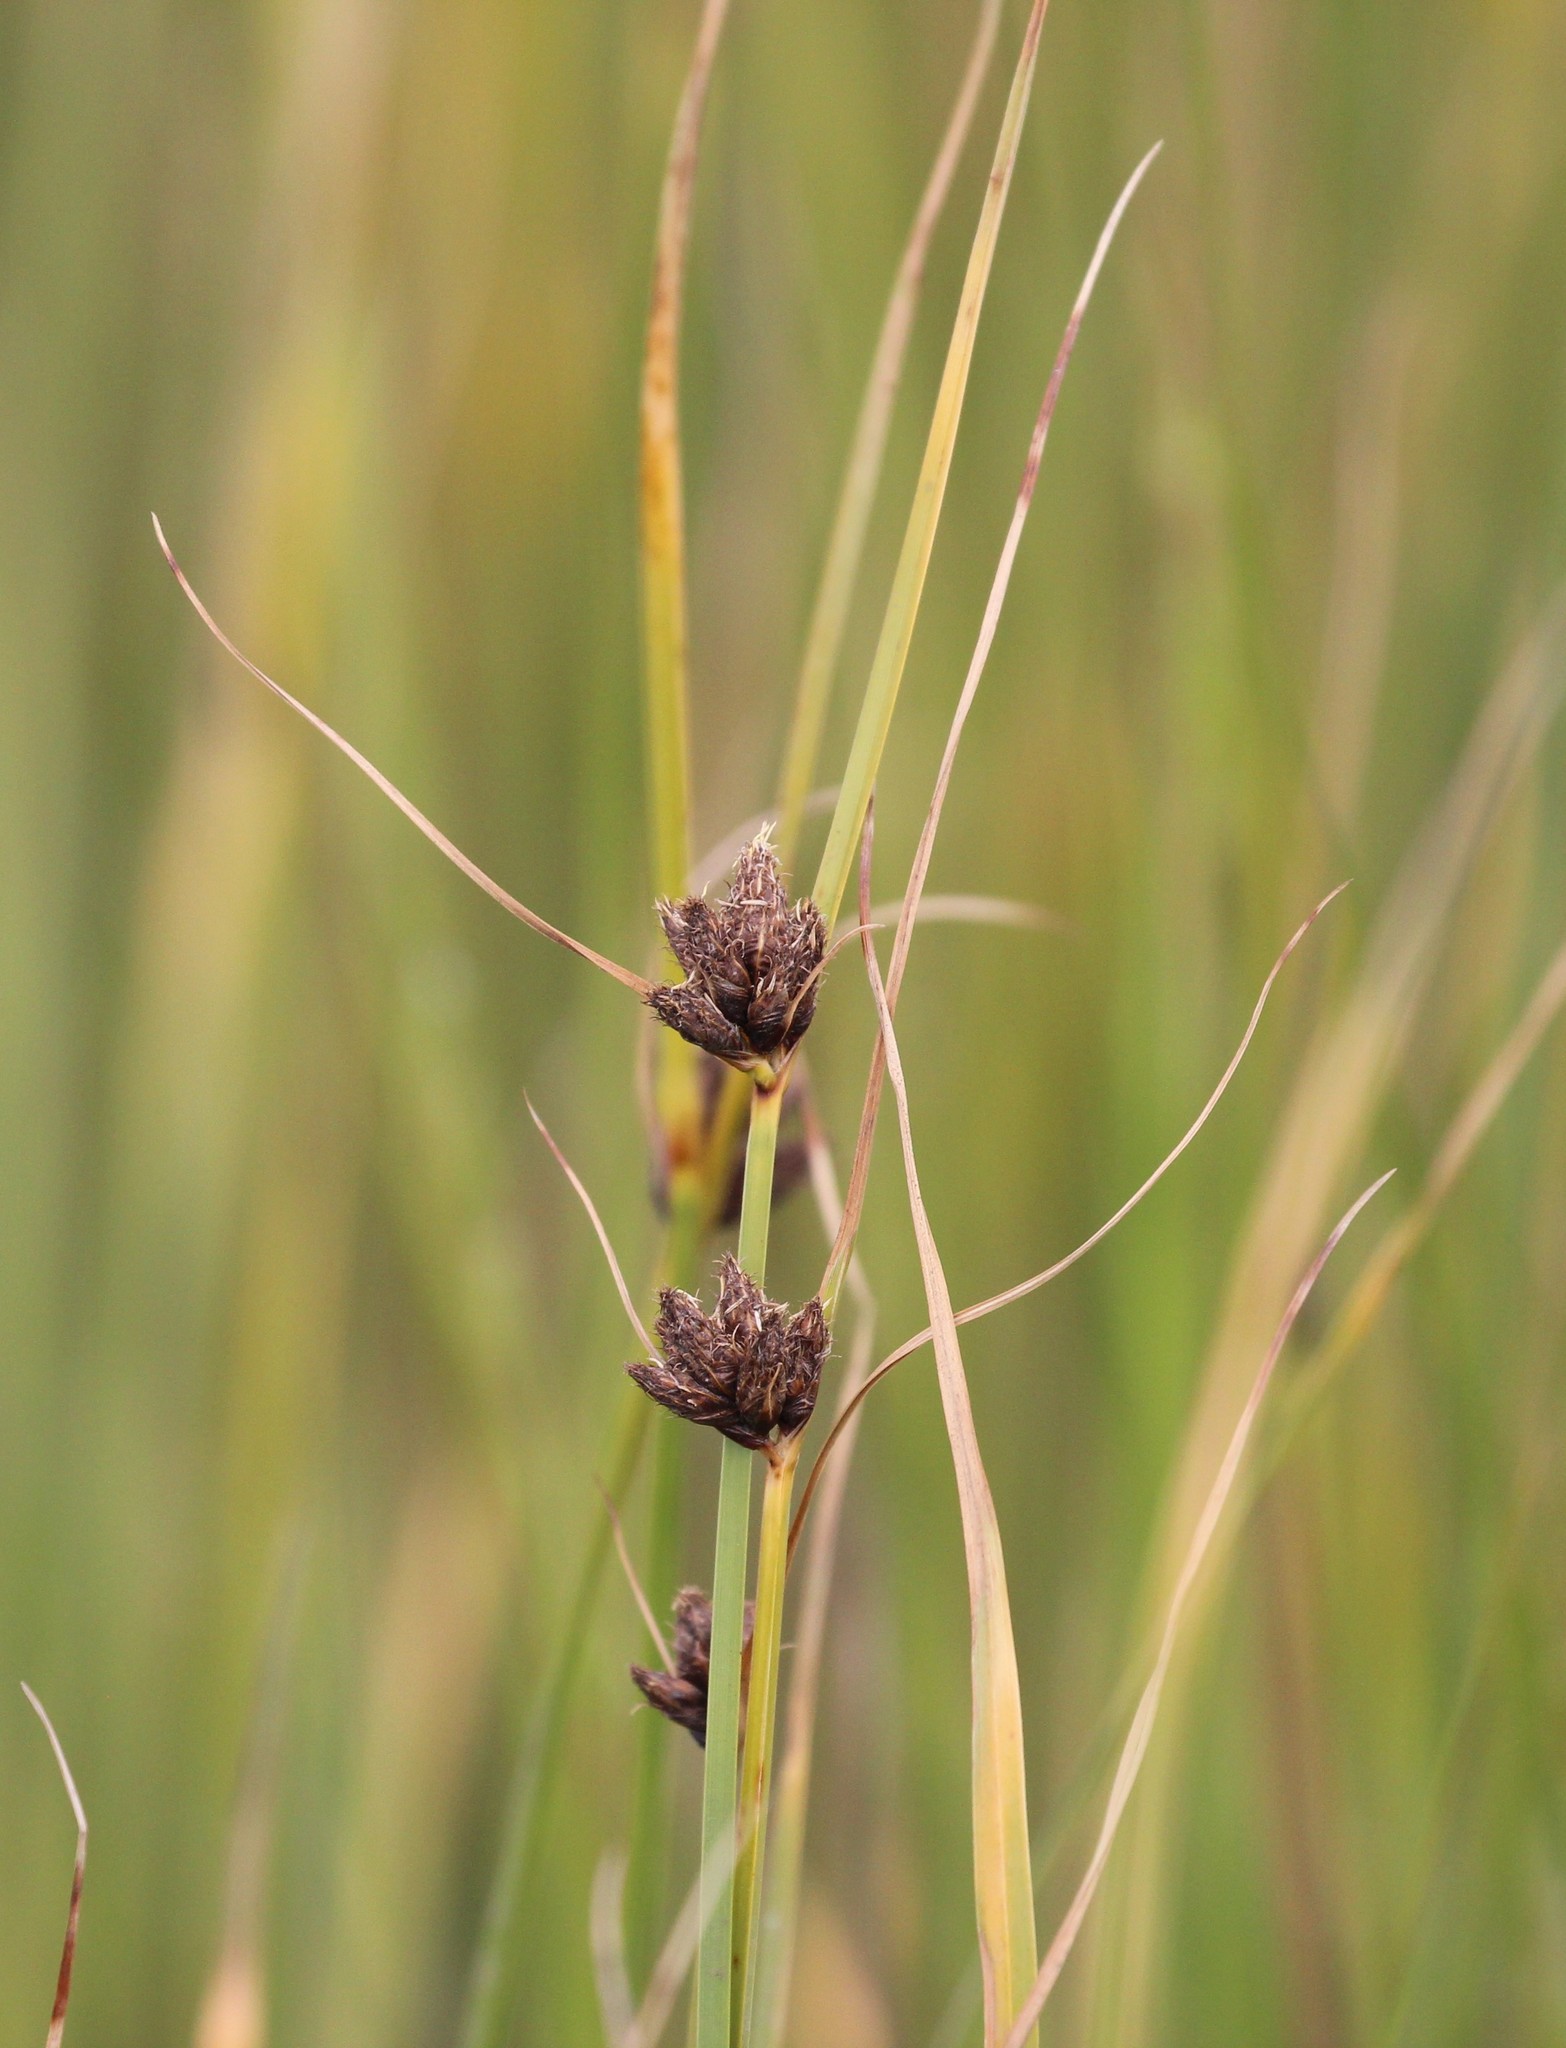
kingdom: Plantae
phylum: Tracheophyta
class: Liliopsida
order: Poales
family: Cyperaceae
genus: Bolboschoenus
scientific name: Bolboschoenus maritimus
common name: Sea club-rush
